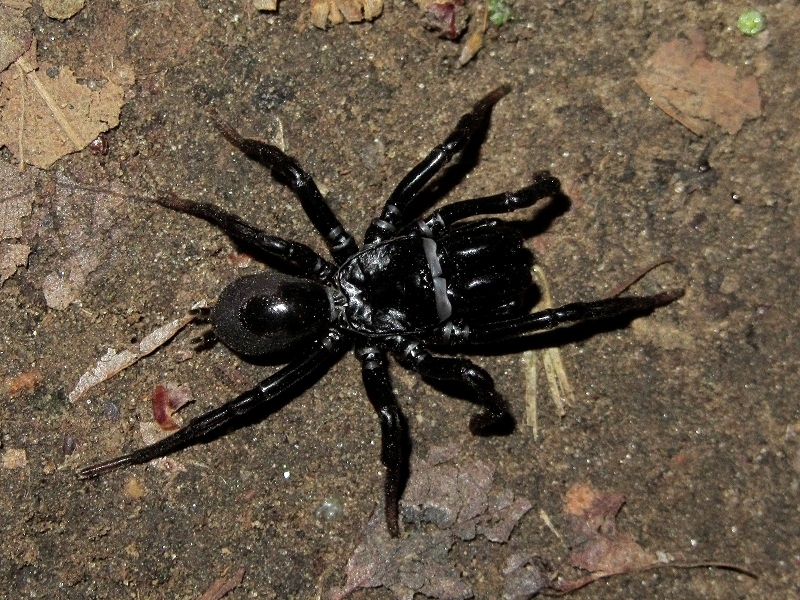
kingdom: Animalia
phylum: Arthropoda
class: Arachnida
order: Araneae
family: Atypidae
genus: Atypus
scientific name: Atypus muralis
